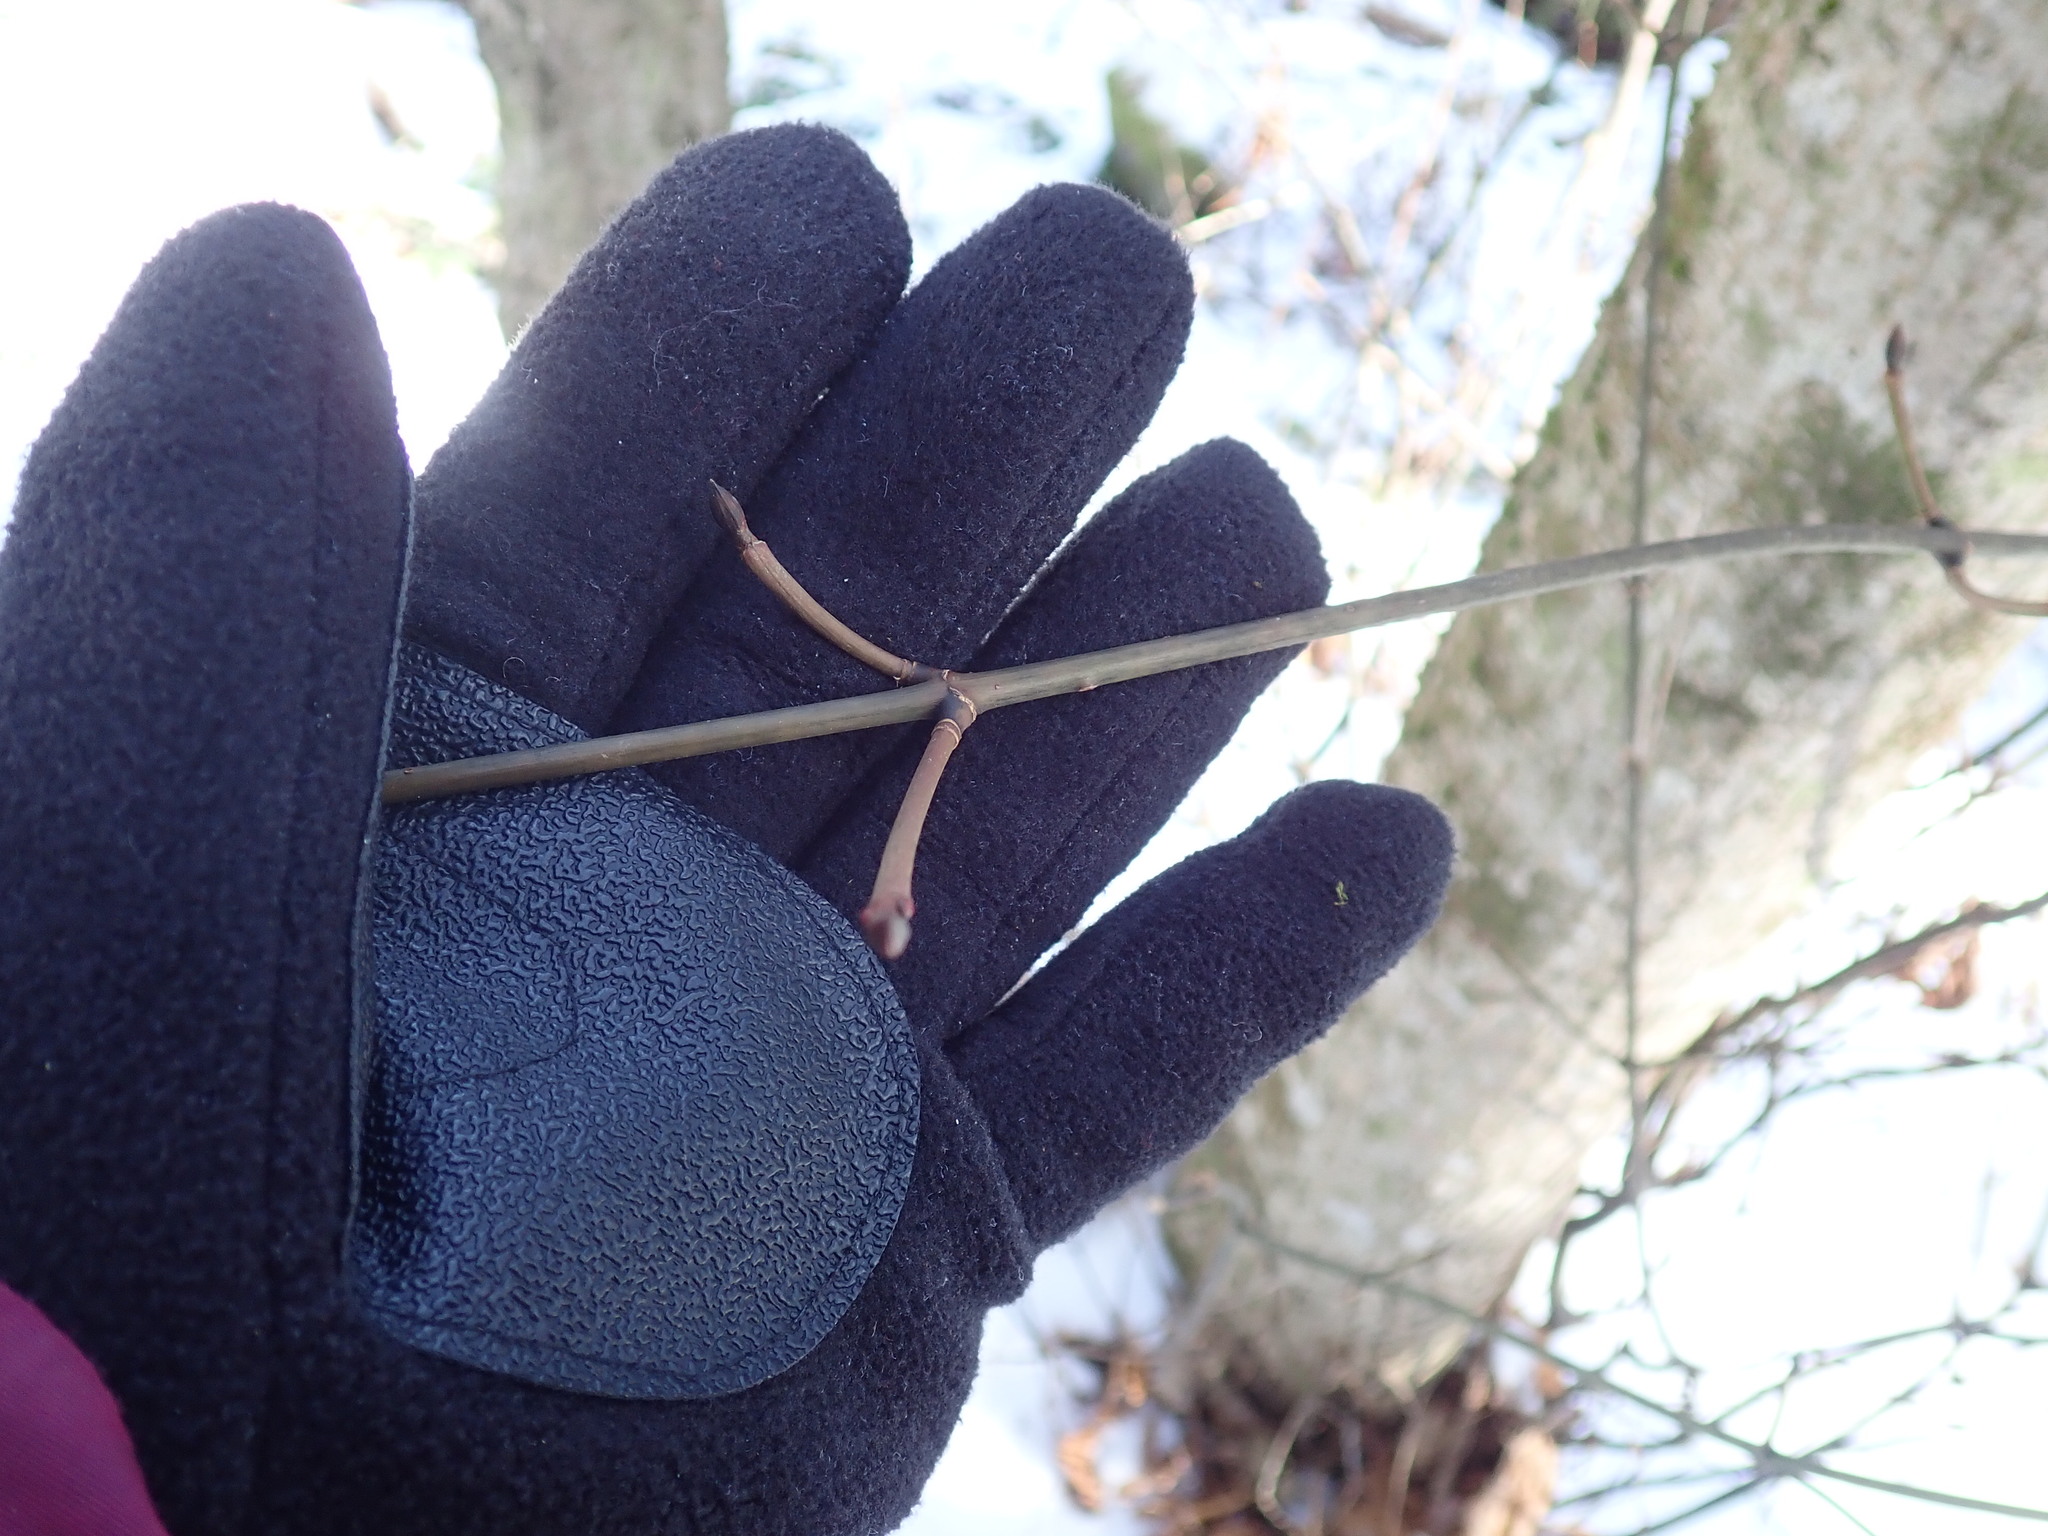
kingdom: Plantae
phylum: Tracheophyta
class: Magnoliopsida
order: Sapindales
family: Sapindaceae
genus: Acer
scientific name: Acer pensylvanicum
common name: Moosewood
